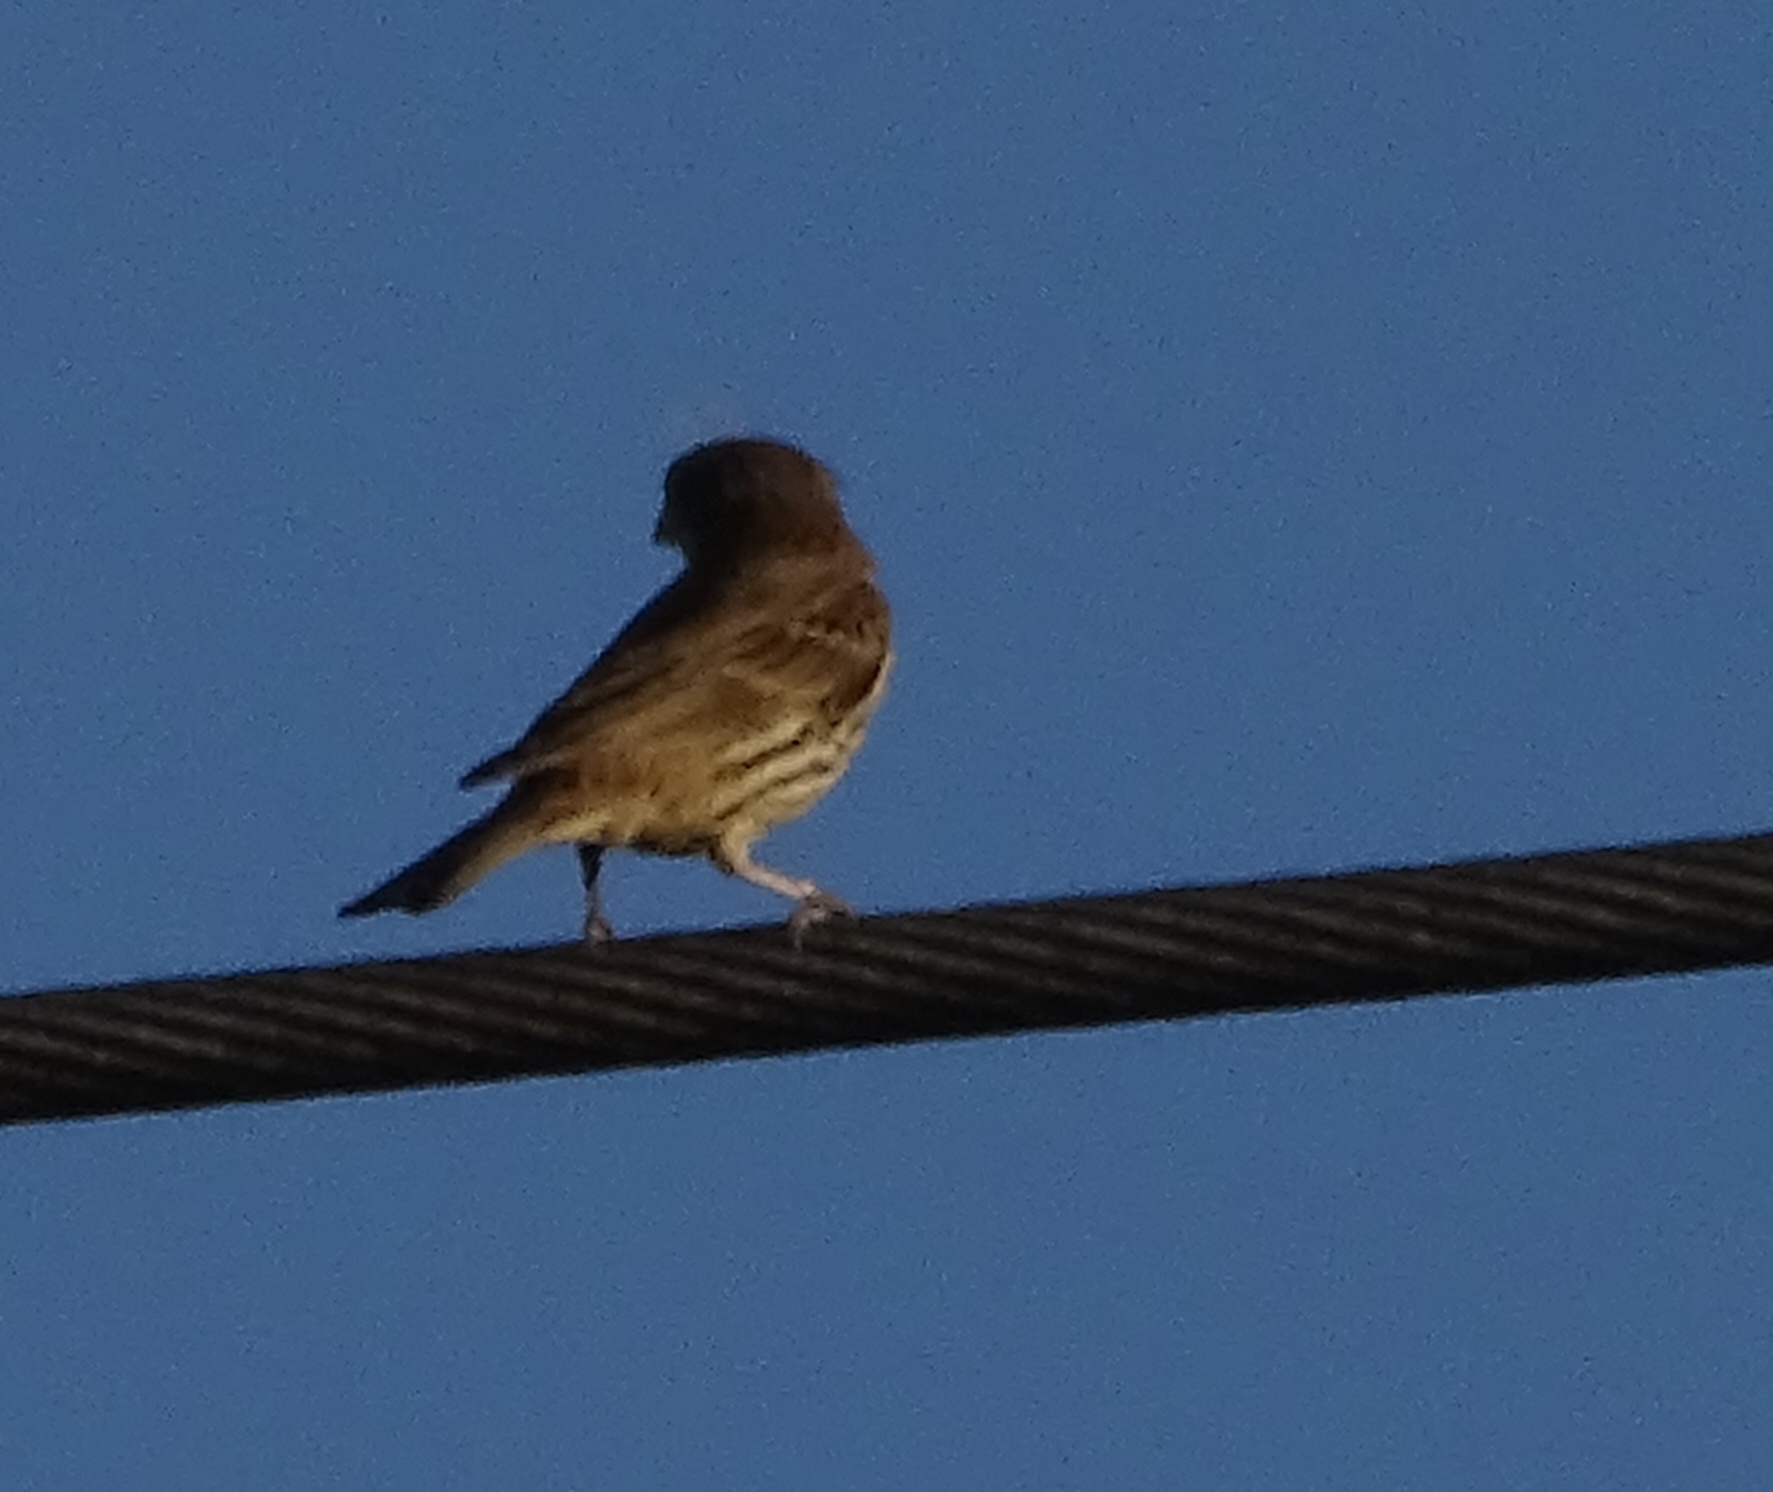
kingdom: Animalia
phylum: Chordata
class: Aves
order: Passeriformes
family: Fringillidae
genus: Haemorhous
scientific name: Haemorhous mexicanus
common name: House finch
